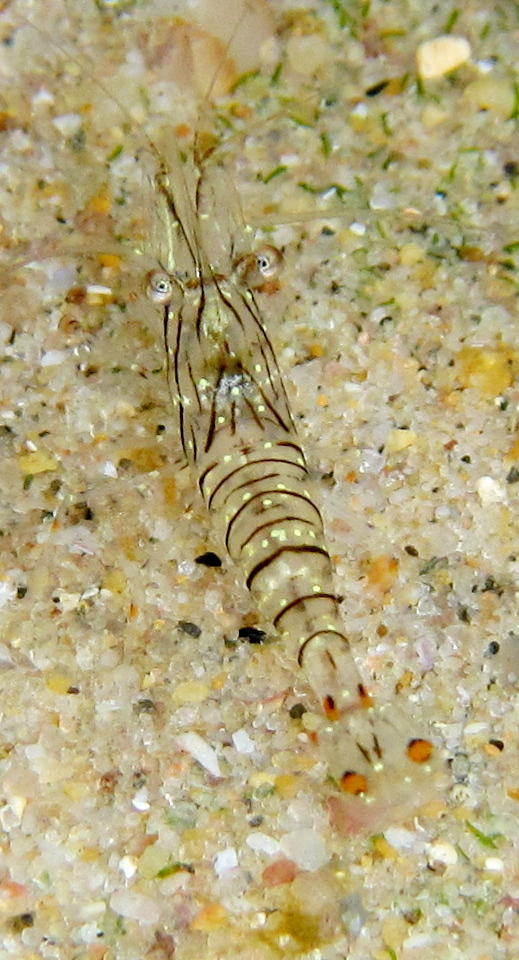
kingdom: Animalia
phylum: Arthropoda
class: Malacostraca
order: Decapoda
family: Palaemonidae
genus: Palaemon
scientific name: Palaemon peringueyi
